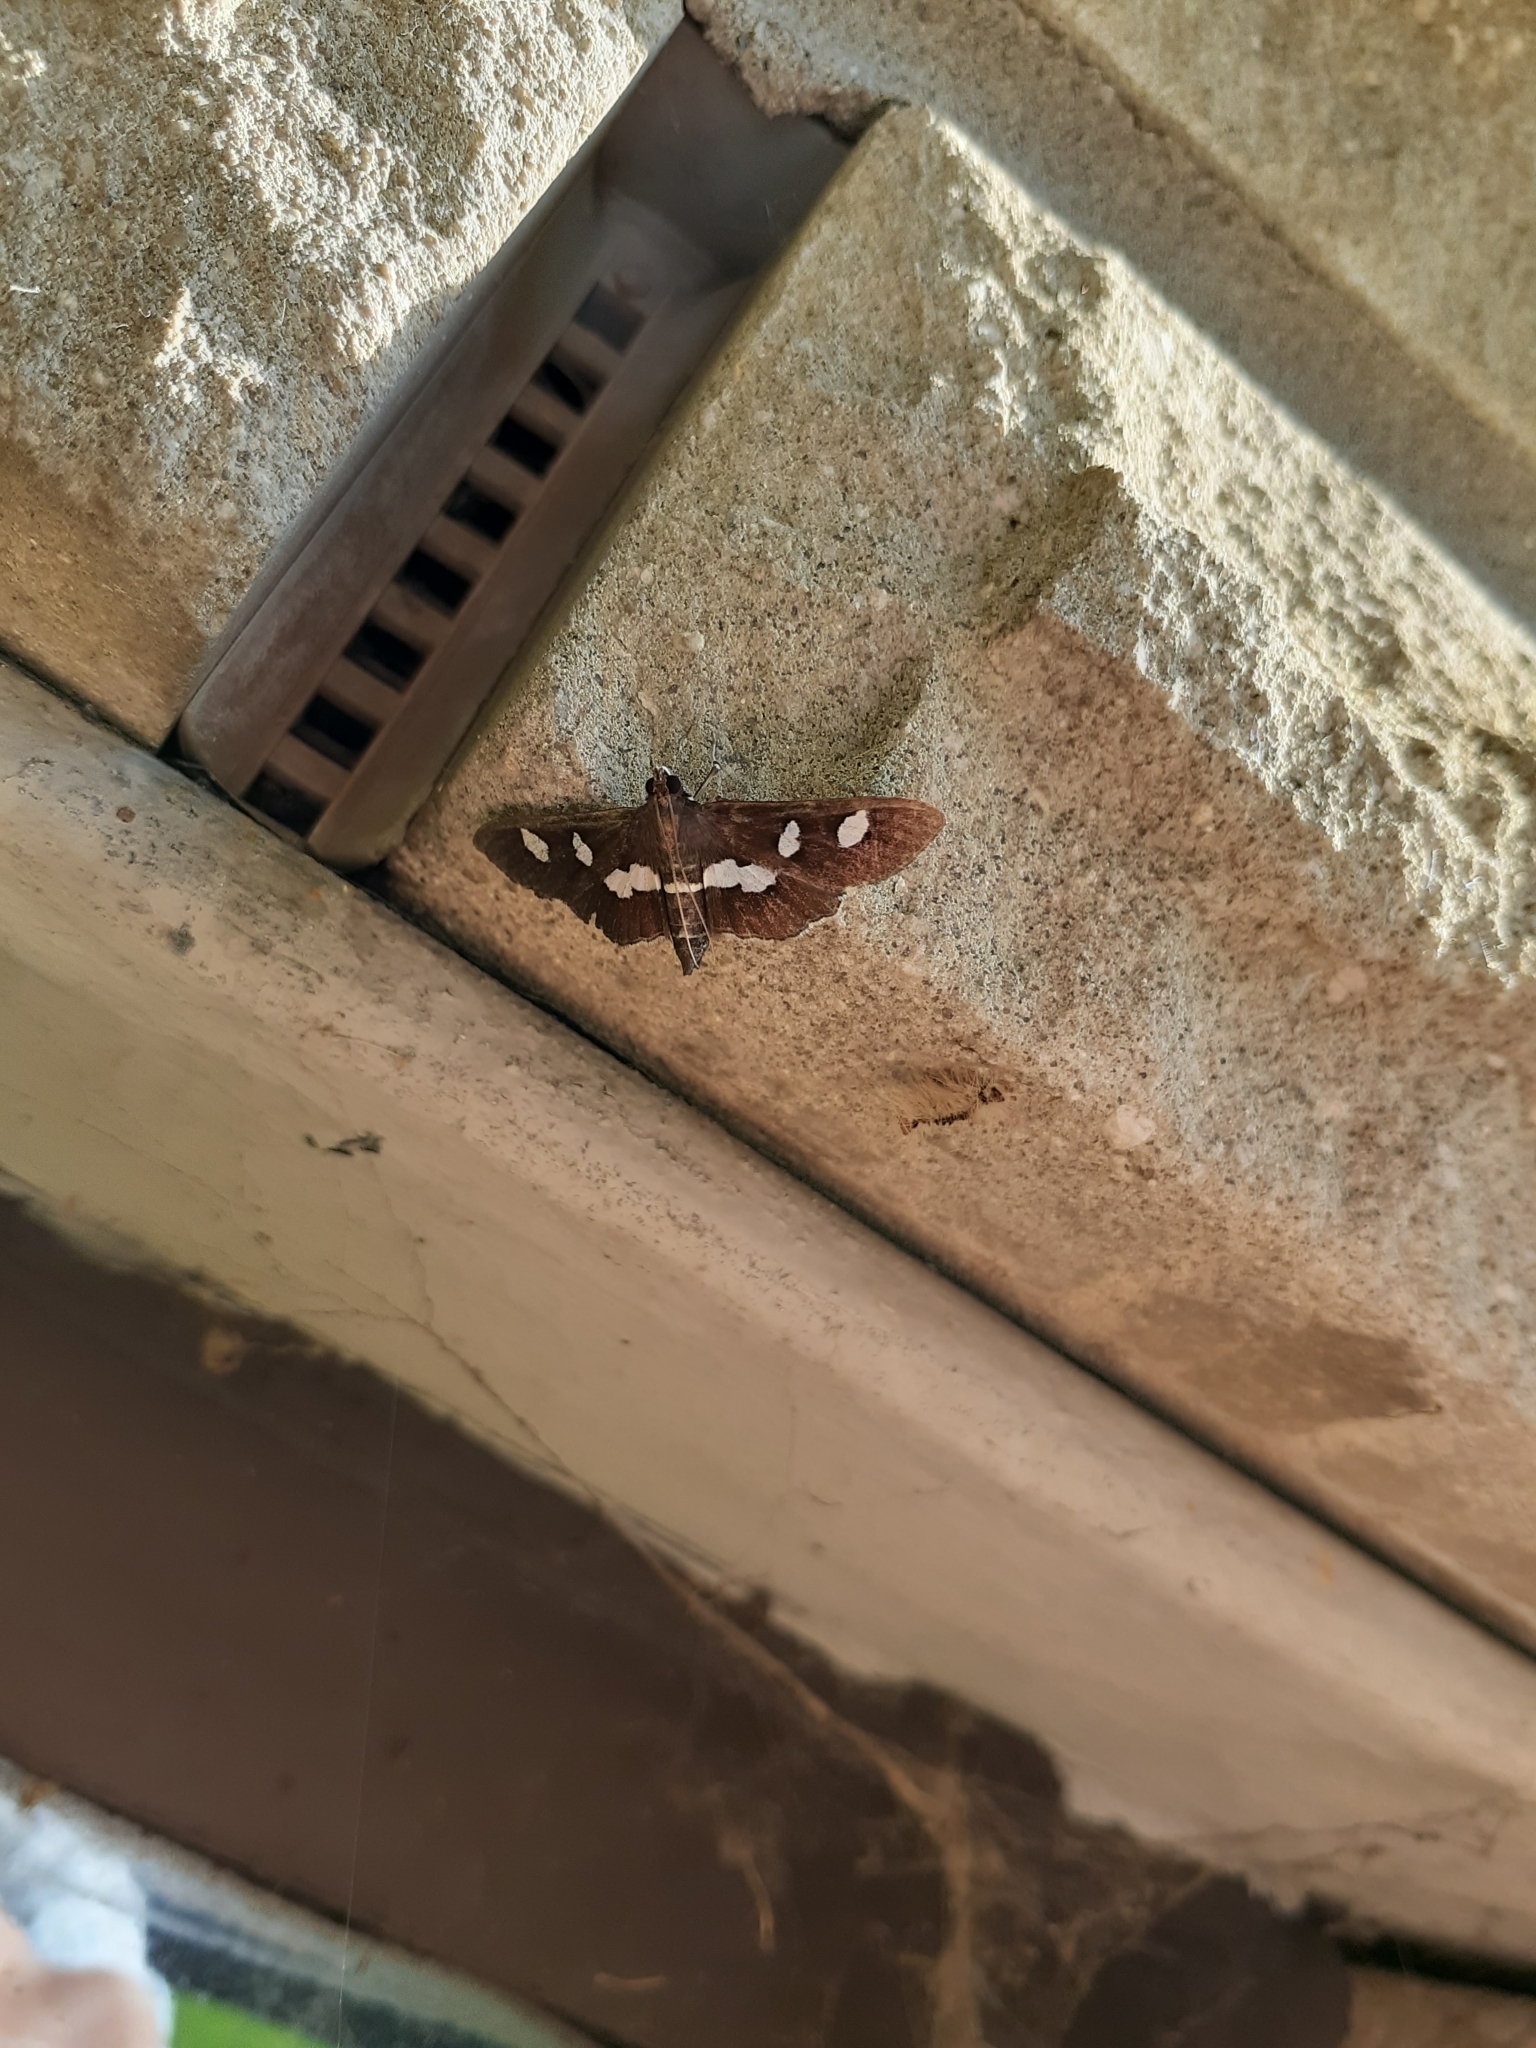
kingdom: Animalia
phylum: Arthropoda
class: Insecta
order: Lepidoptera
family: Crambidae
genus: Desmia
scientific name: Desmia
